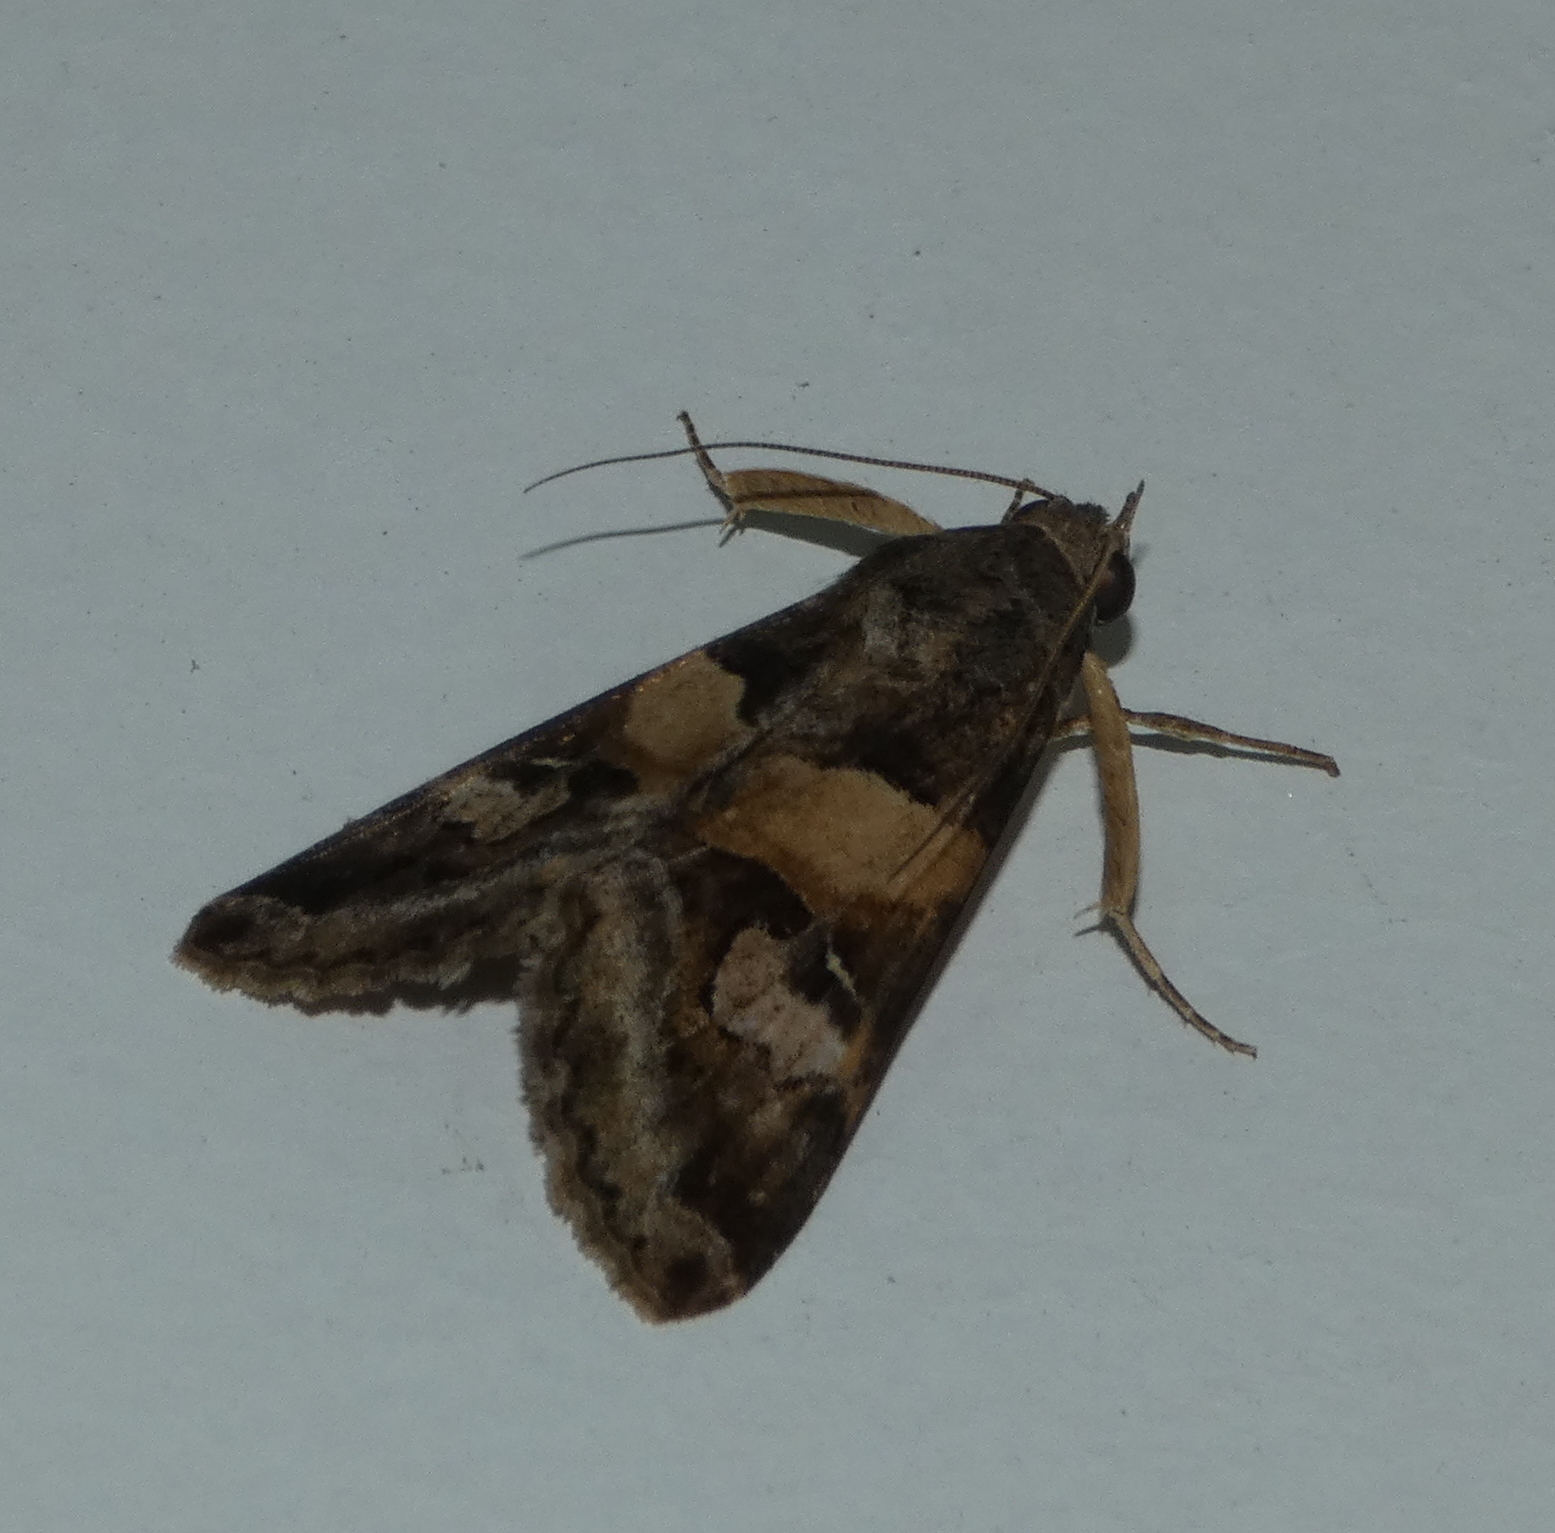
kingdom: Animalia
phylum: Arthropoda
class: Insecta
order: Lepidoptera
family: Erebidae
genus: Melipotis
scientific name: Melipotis ochrodes
